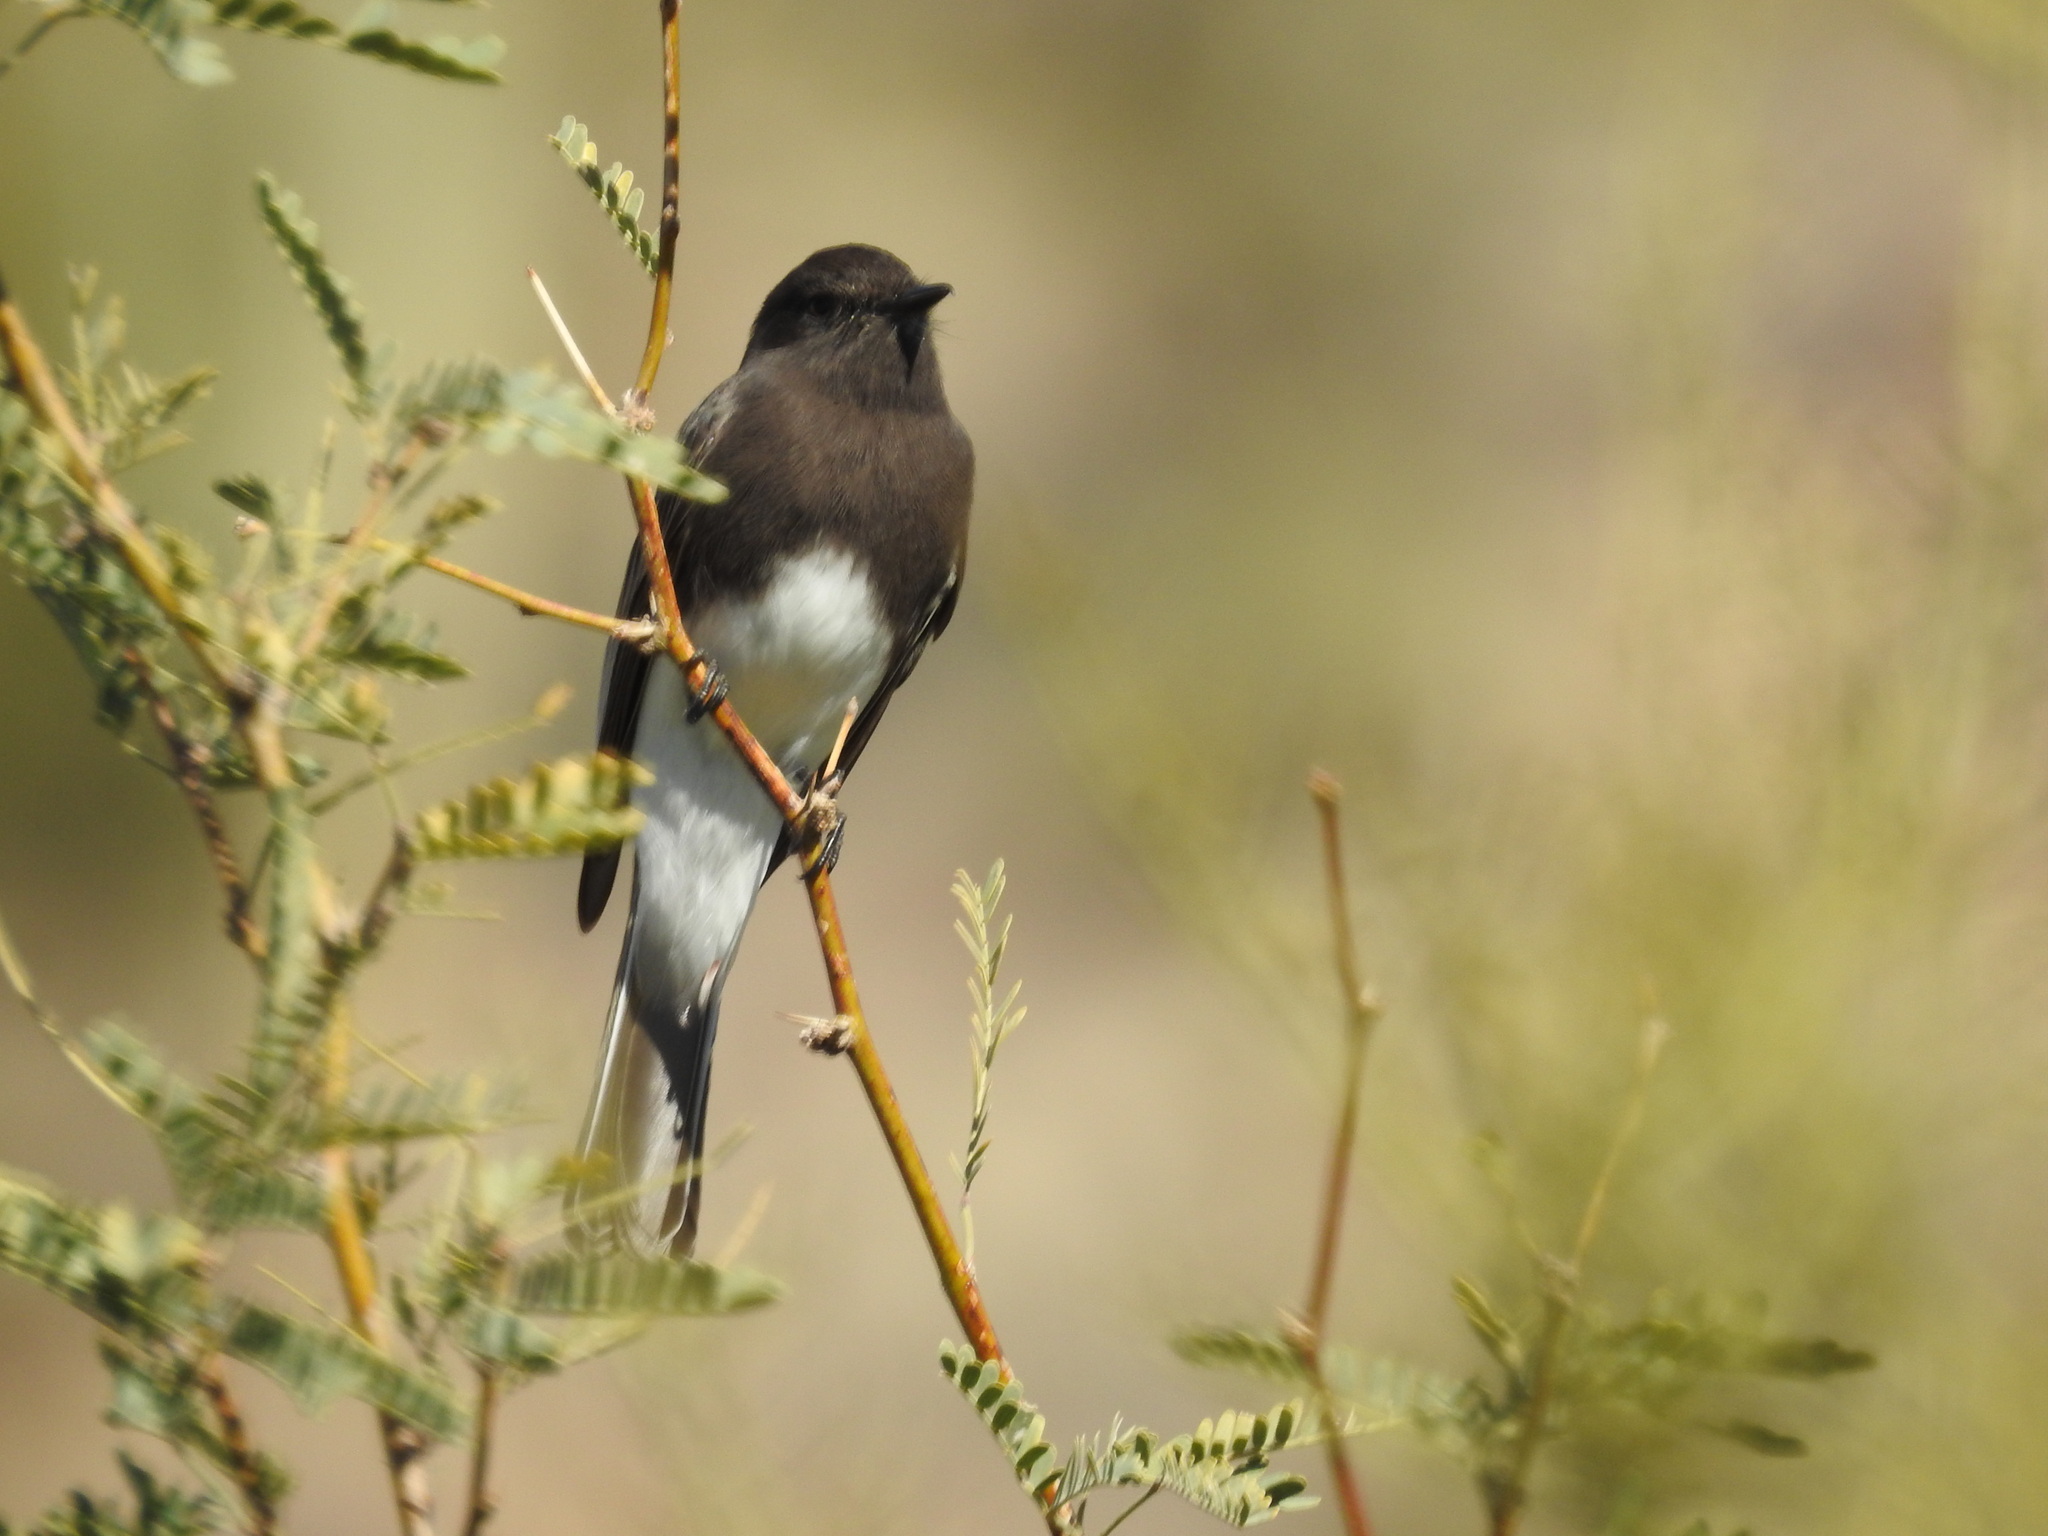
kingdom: Animalia
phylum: Chordata
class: Aves
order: Passeriformes
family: Tyrannidae
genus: Sayornis
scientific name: Sayornis nigricans
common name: Black phoebe
